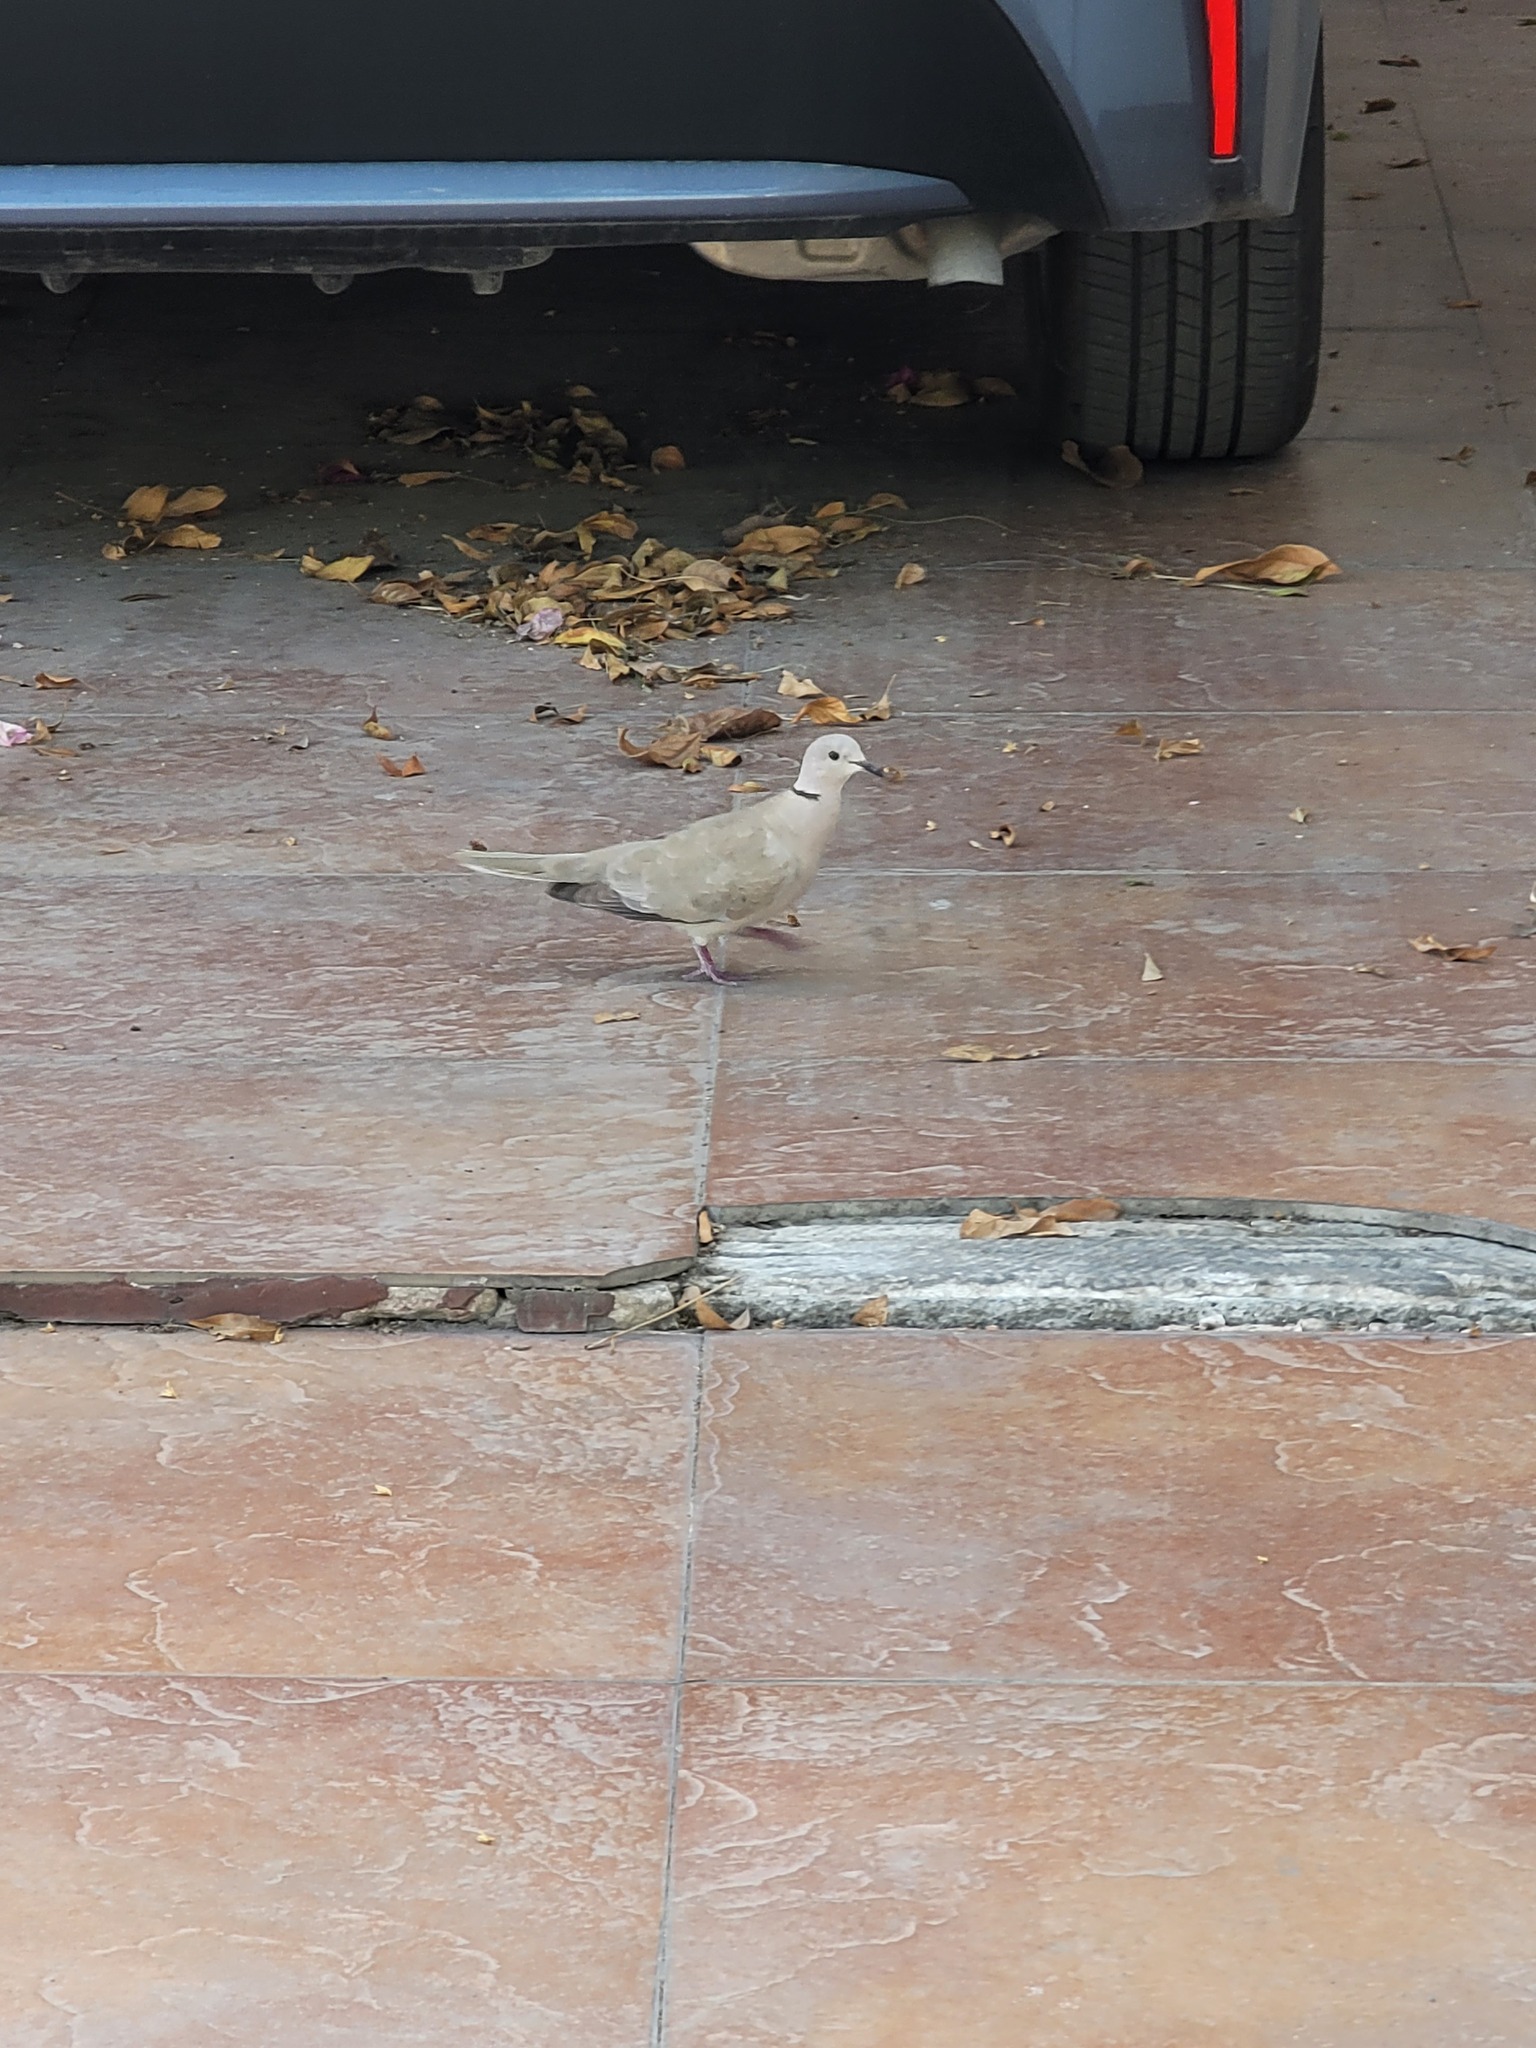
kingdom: Animalia
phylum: Chordata
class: Aves
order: Columbiformes
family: Columbidae
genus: Streptopelia
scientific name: Streptopelia decaocto
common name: Eurasian collared dove
